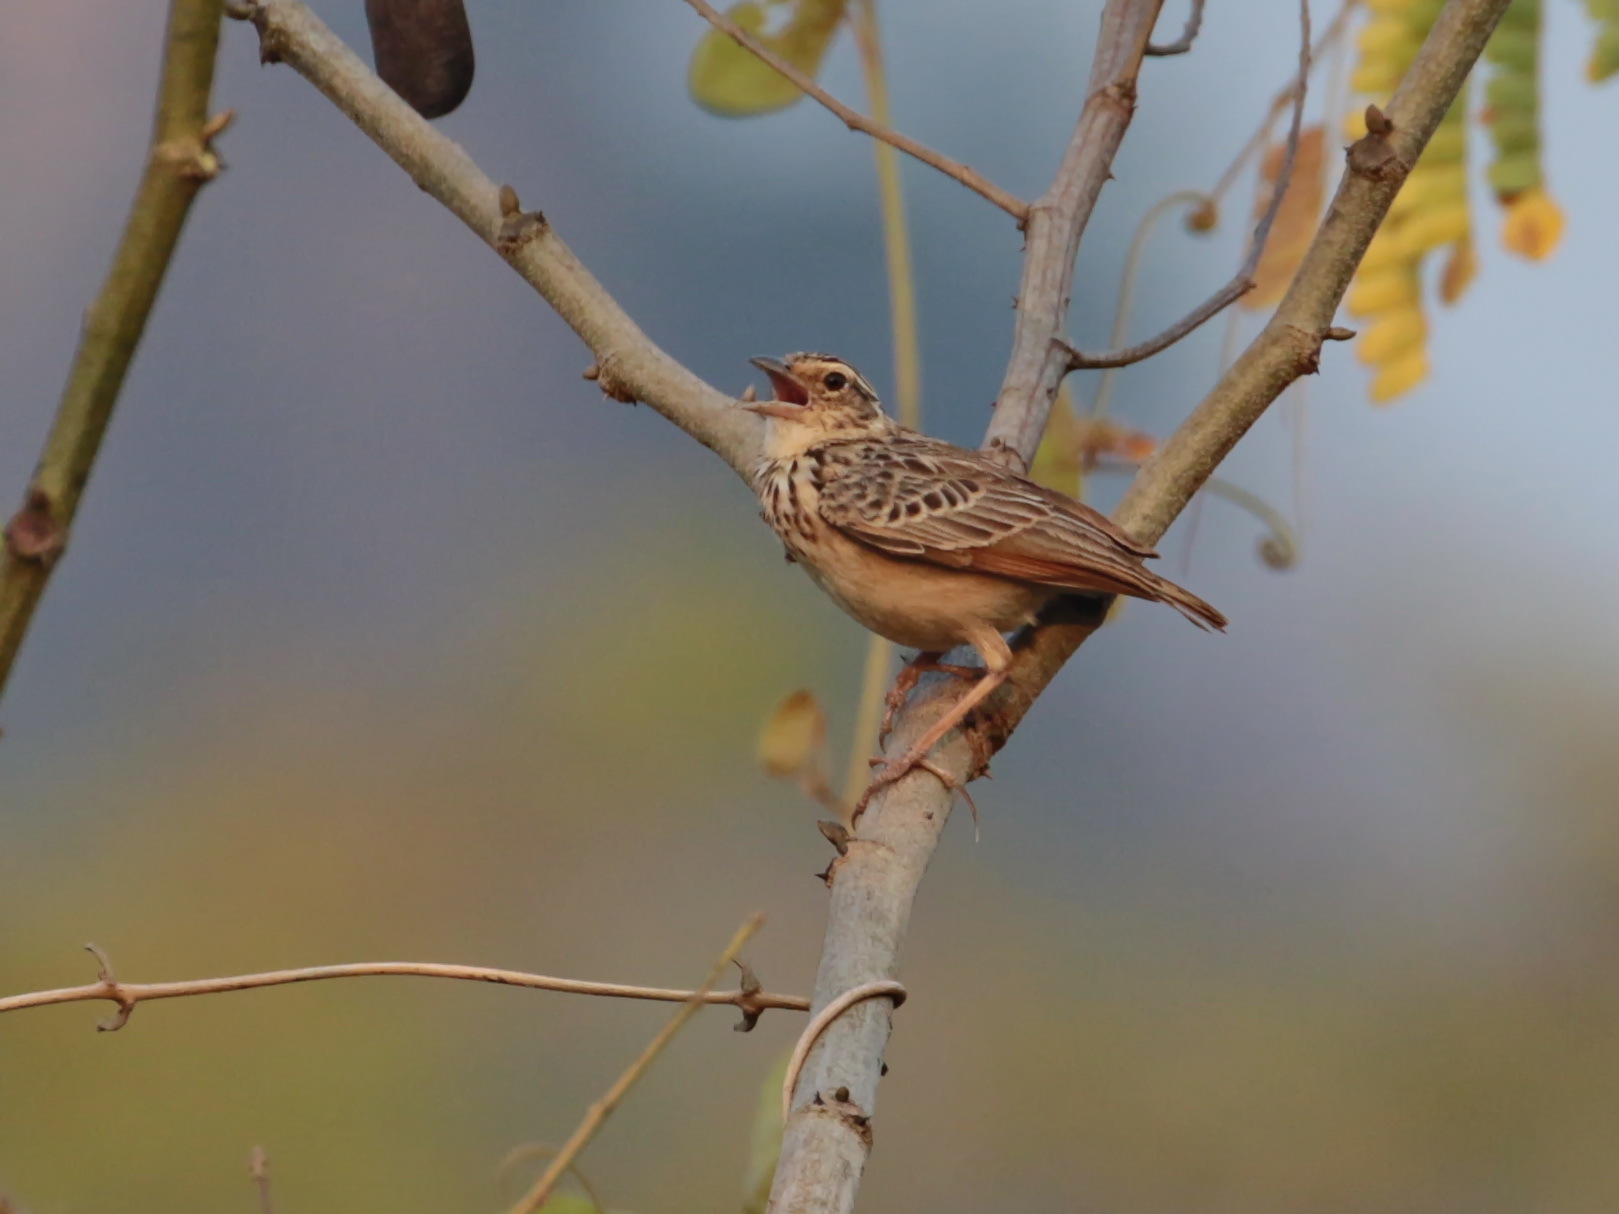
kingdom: Animalia
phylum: Chordata
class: Aves
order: Passeriformes
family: Alaudidae
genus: Mirafra
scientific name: Mirafra erythrocephala
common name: Indochinese bushlark
